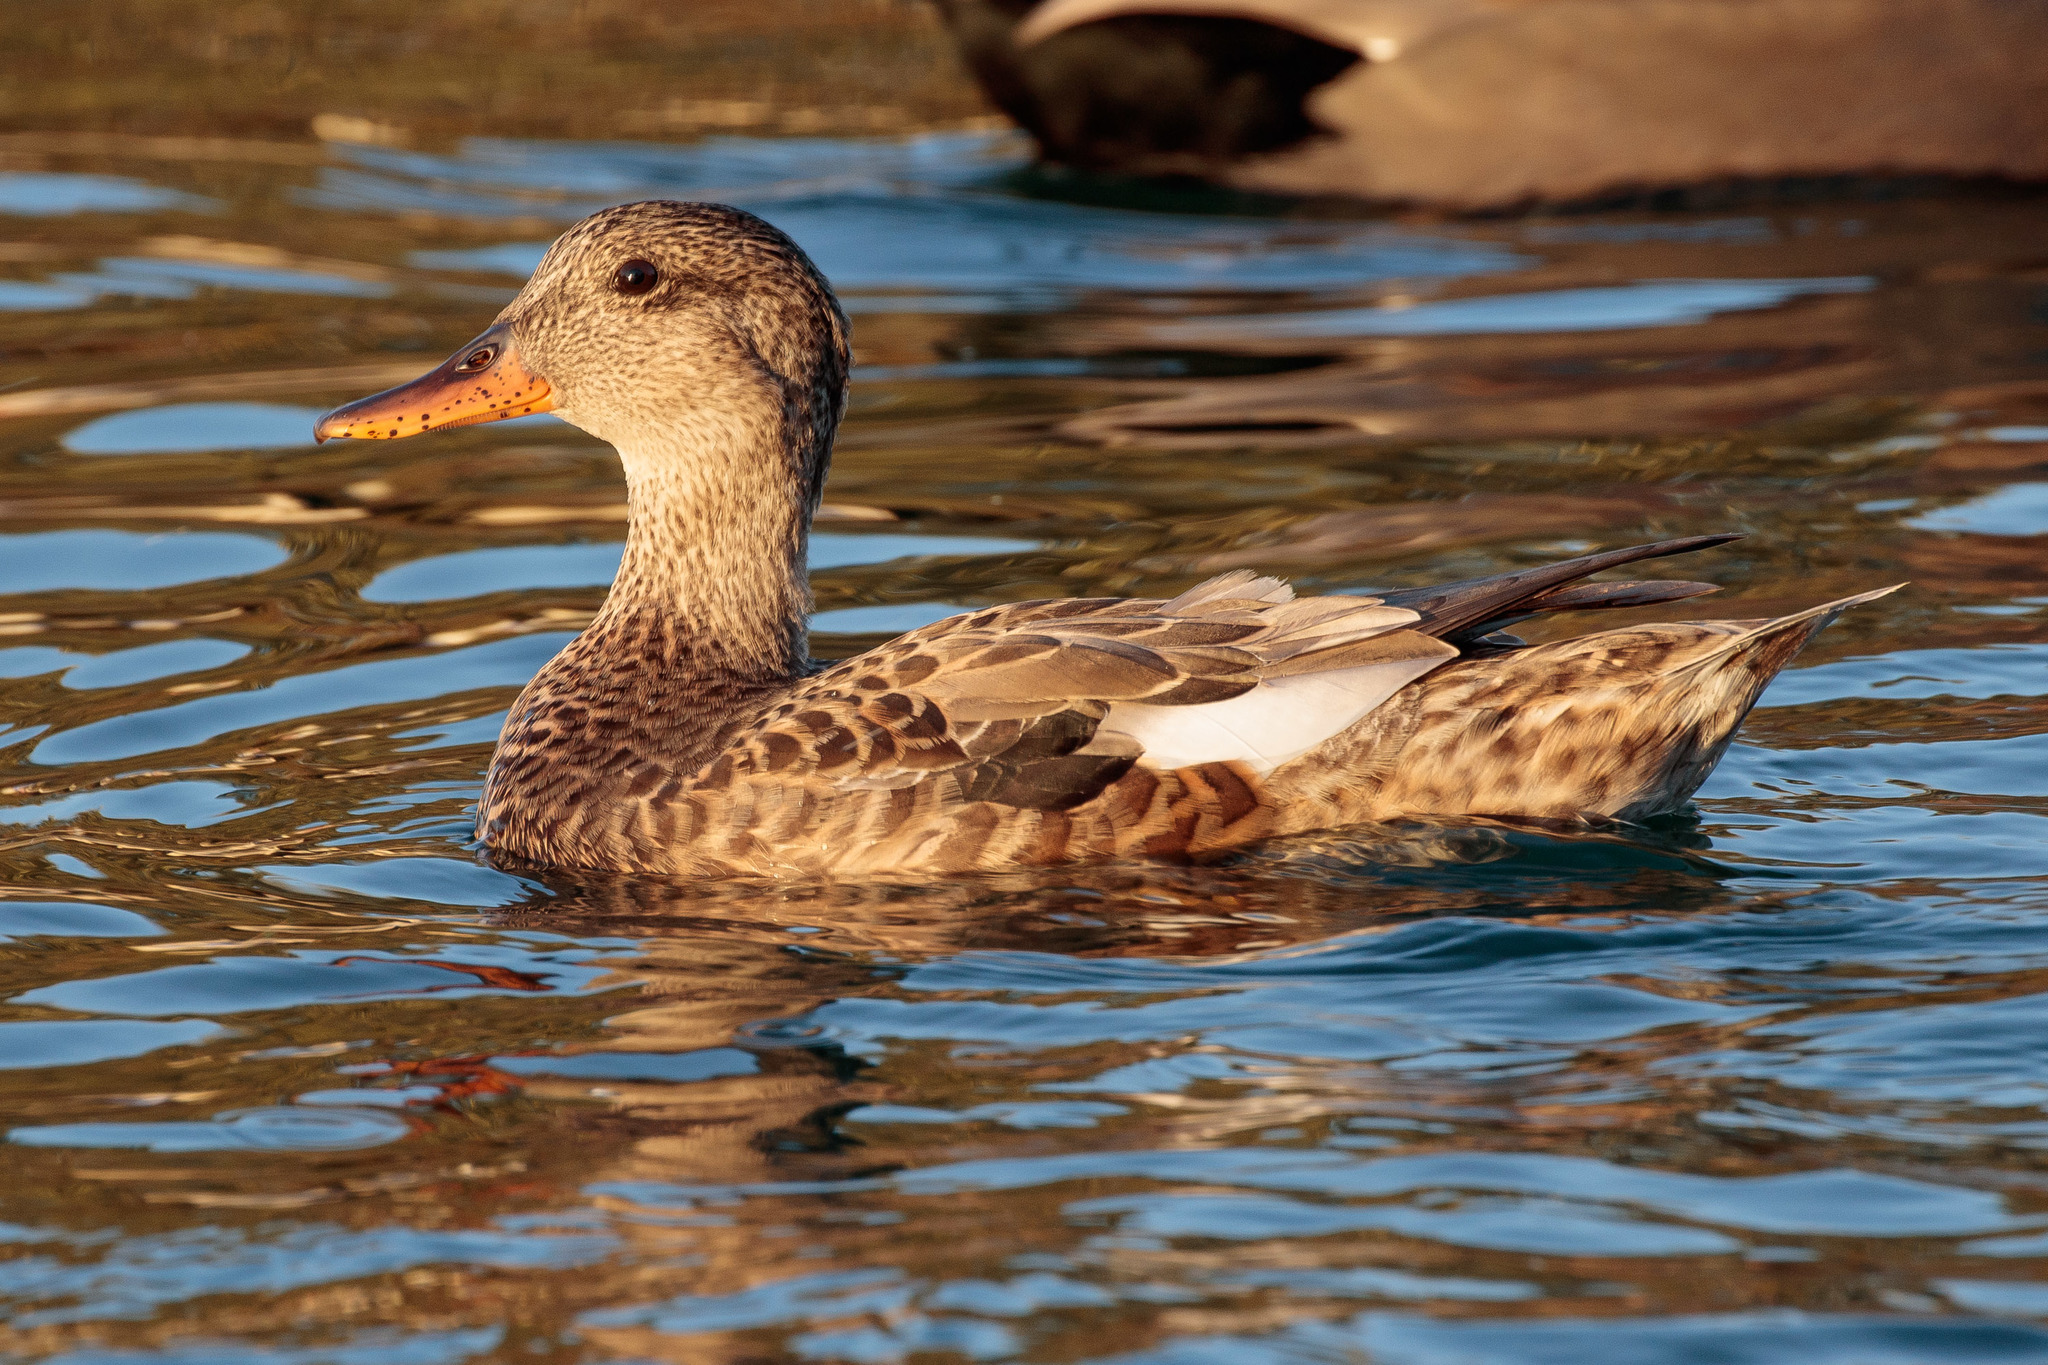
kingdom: Animalia
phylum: Chordata
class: Aves
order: Anseriformes
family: Anatidae
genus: Mareca
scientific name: Mareca strepera
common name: Gadwall
